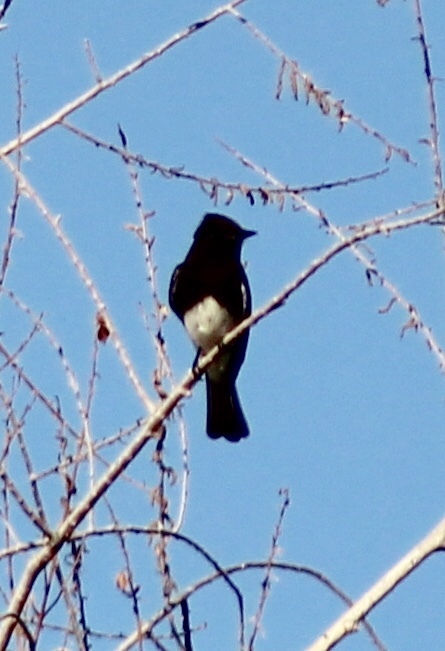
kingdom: Animalia
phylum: Chordata
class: Aves
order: Passeriformes
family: Tyrannidae
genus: Sayornis
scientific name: Sayornis nigricans
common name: Black phoebe
